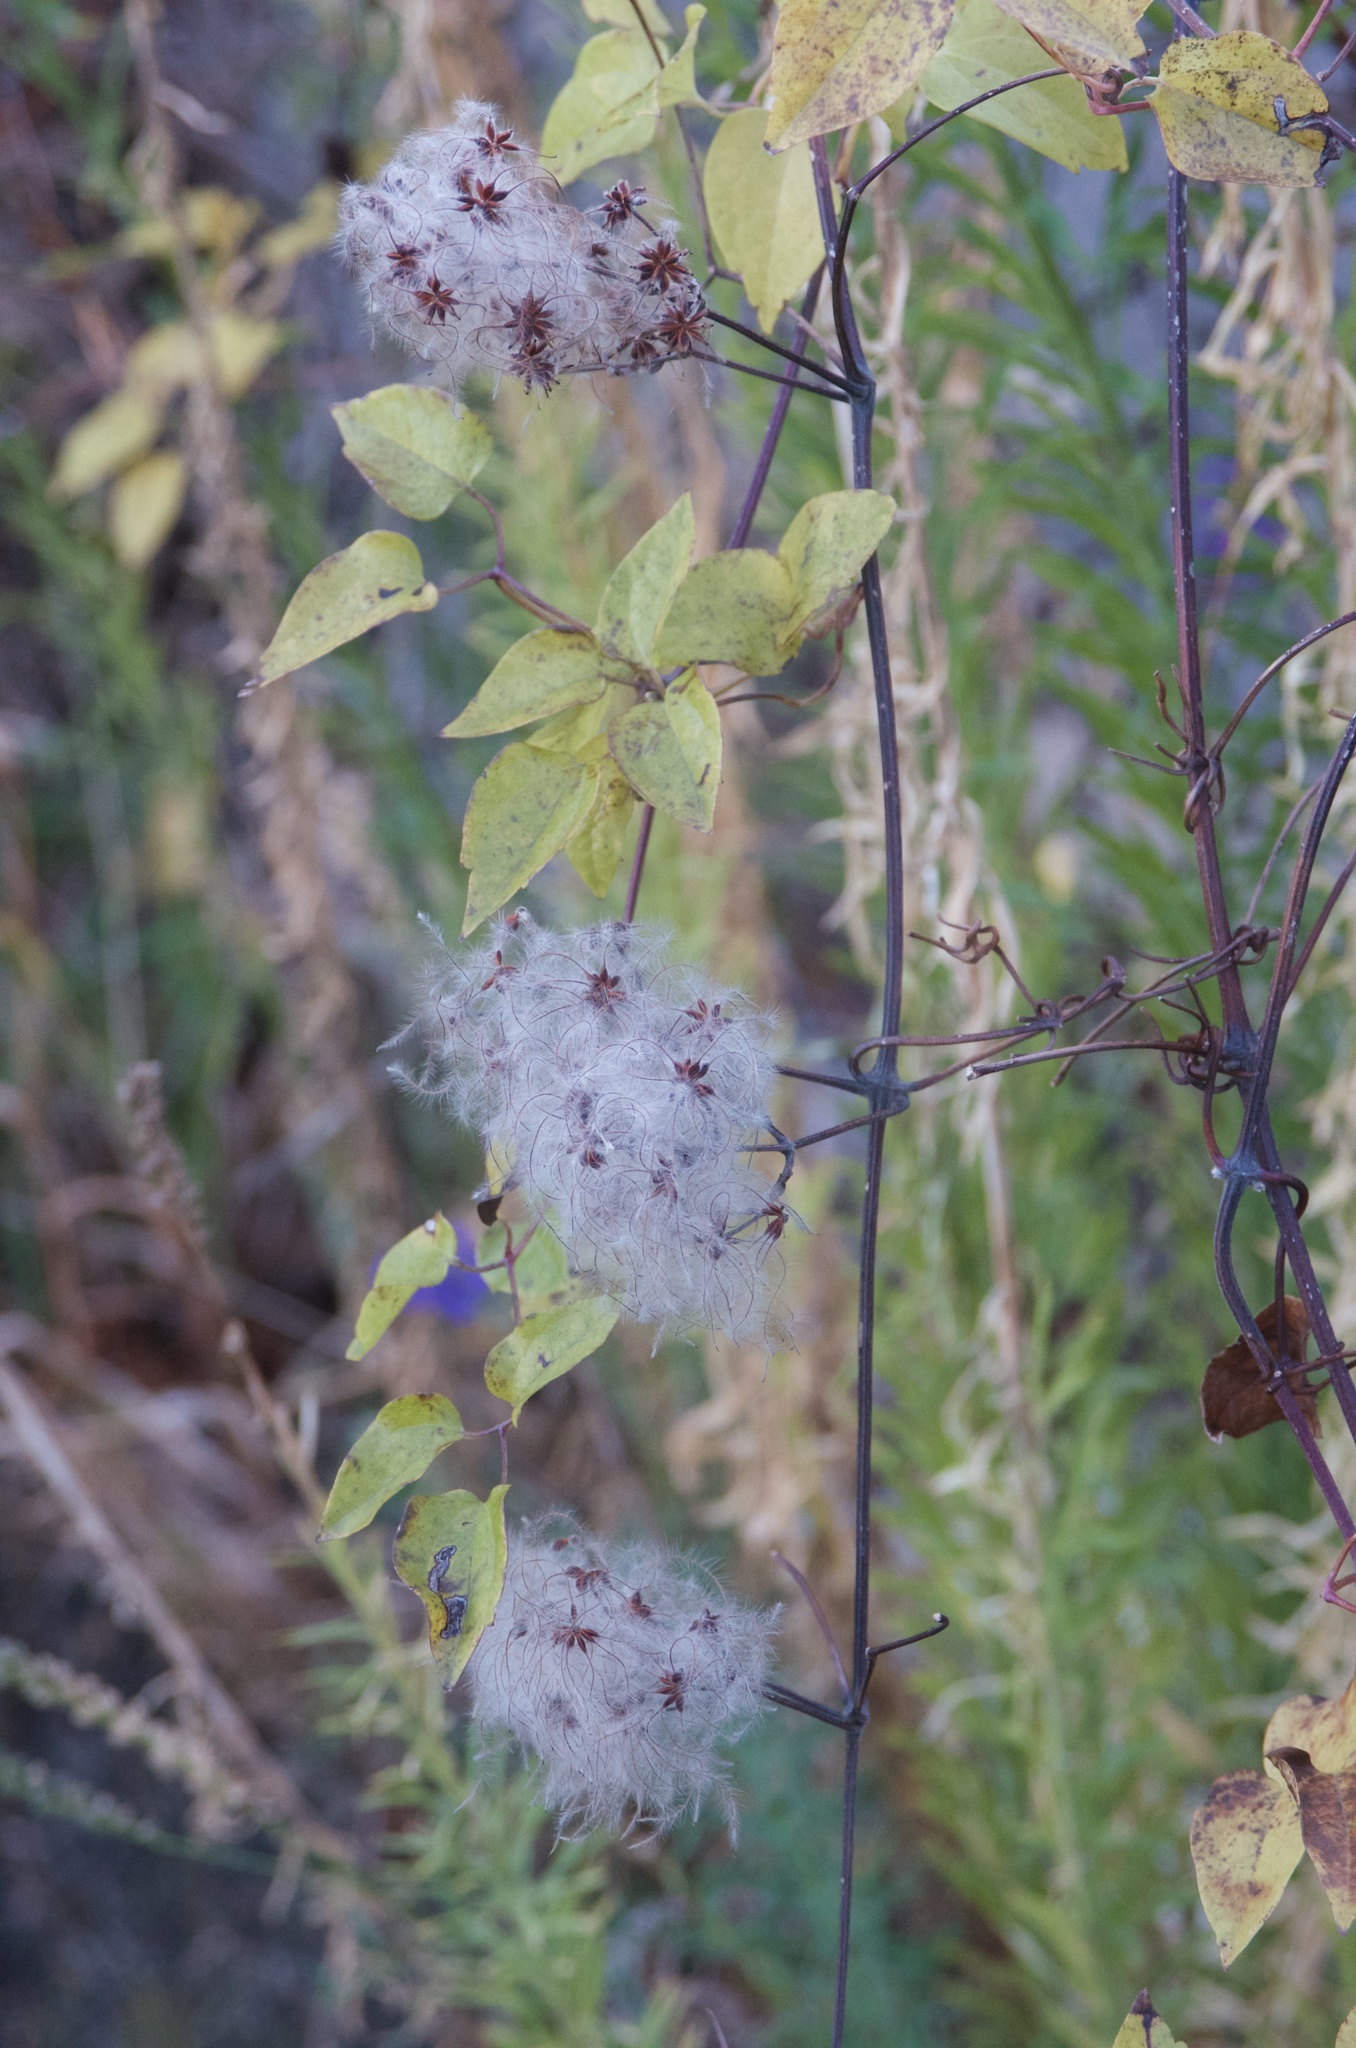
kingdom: Plantae
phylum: Tracheophyta
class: Magnoliopsida
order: Ranunculales
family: Ranunculaceae
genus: Clematis
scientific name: Clematis vitalba
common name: Evergreen clematis
